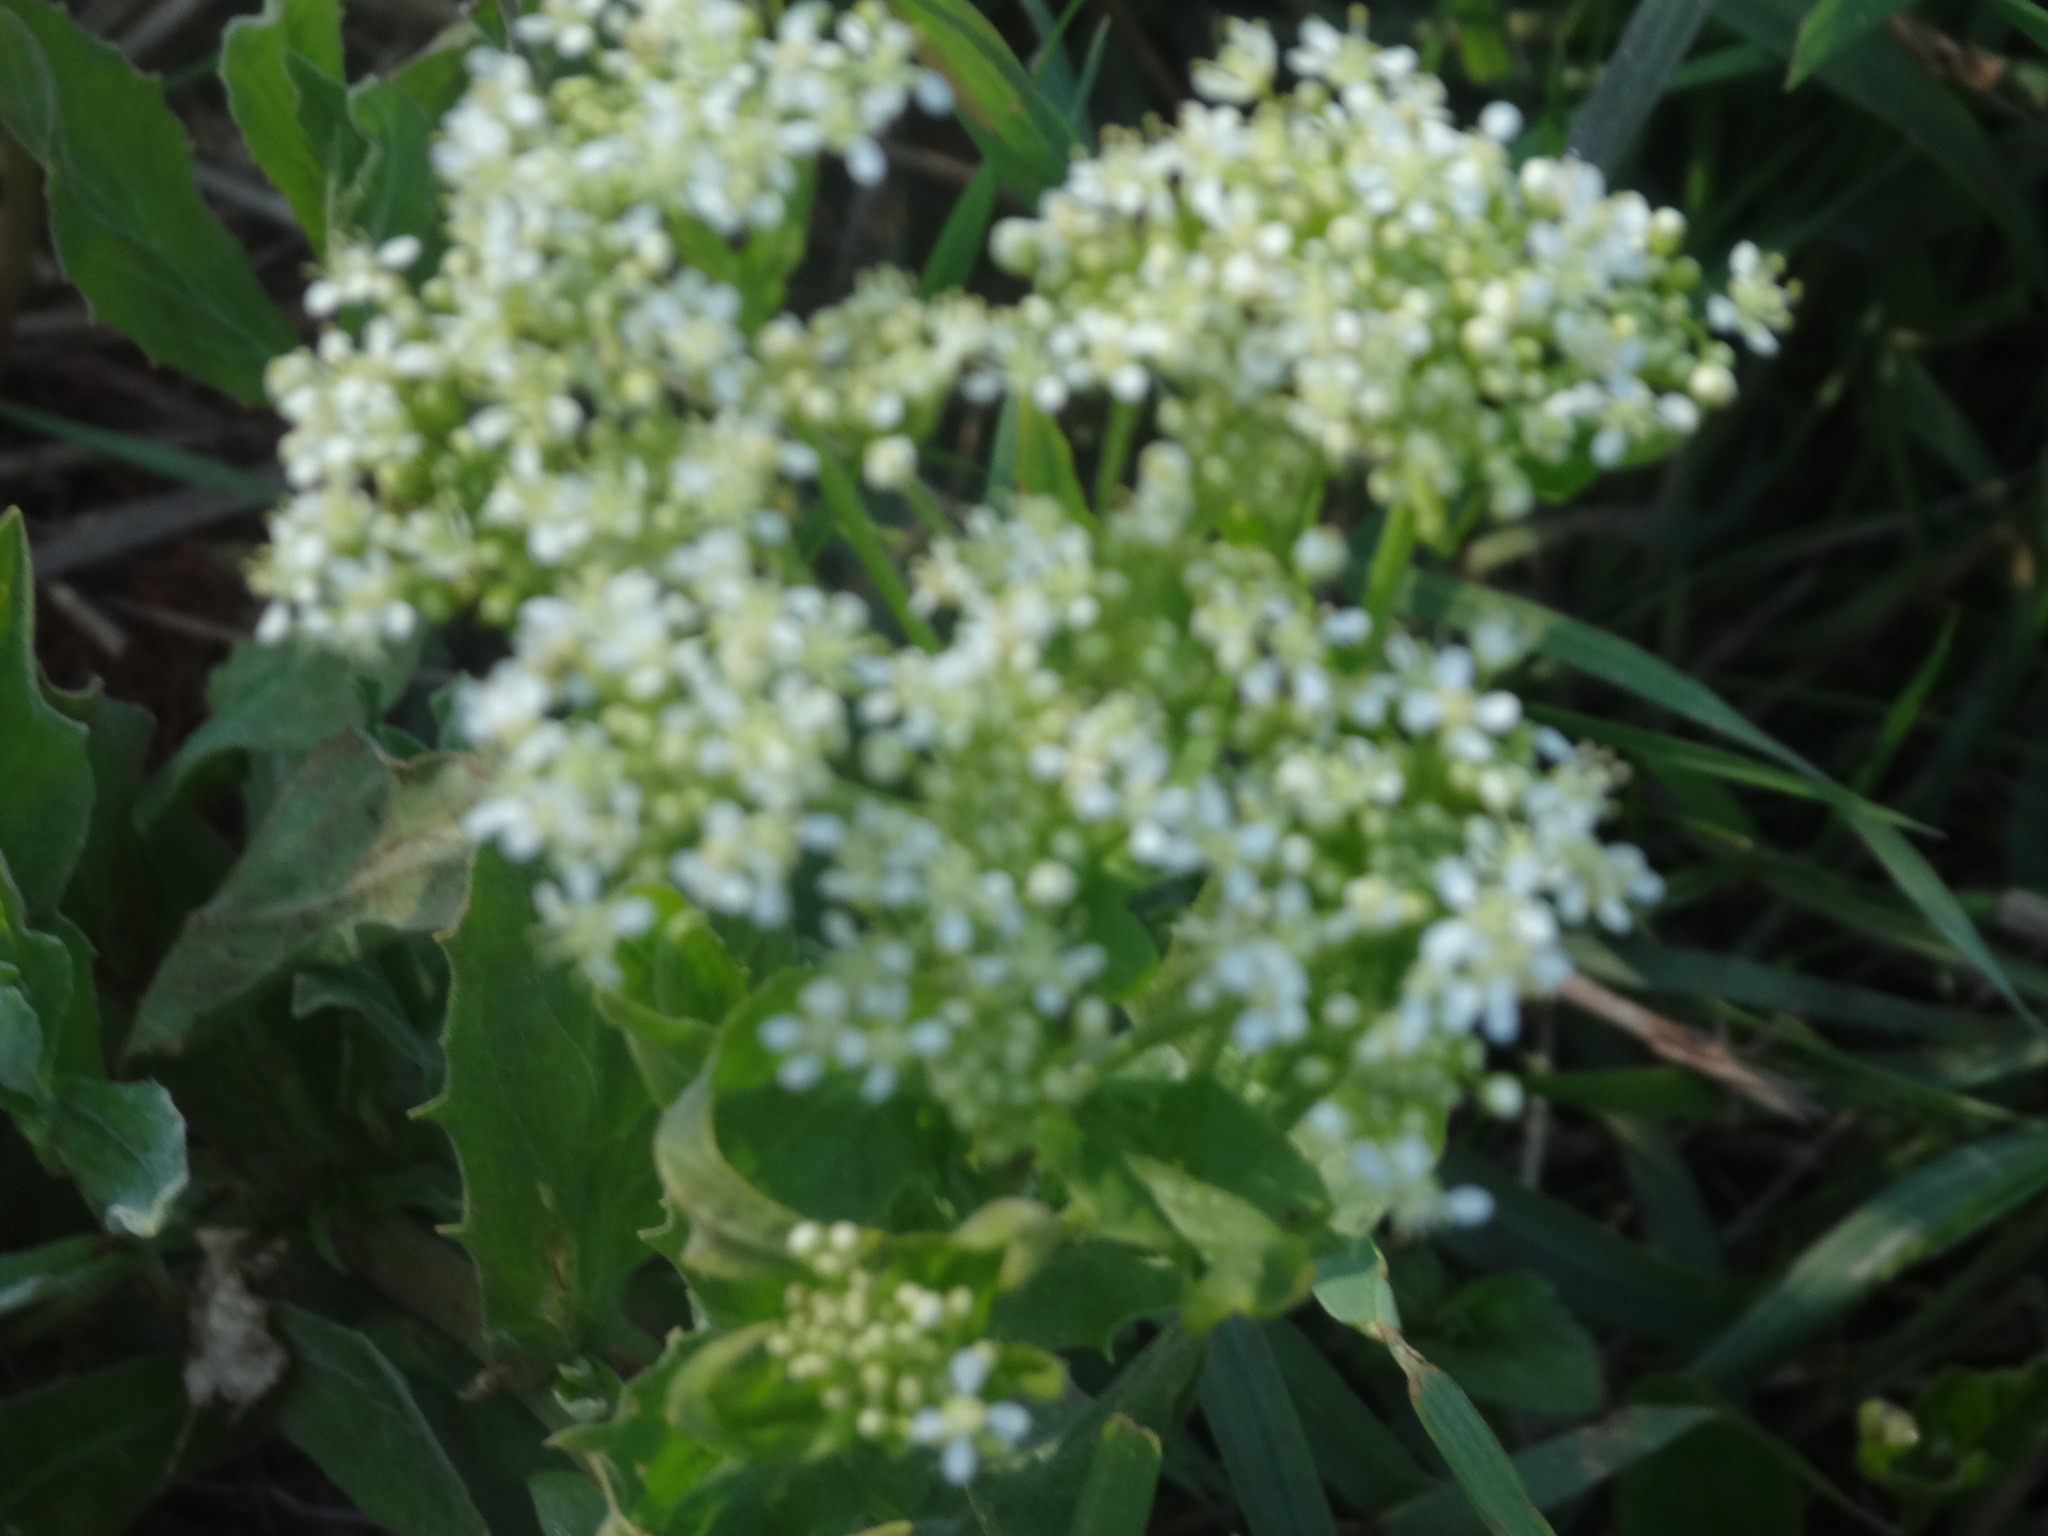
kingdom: Plantae
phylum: Tracheophyta
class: Magnoliopsida
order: Brassicales
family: Brassicaceae
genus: Lepidium
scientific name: Lepidium draba
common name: Hoary cress
